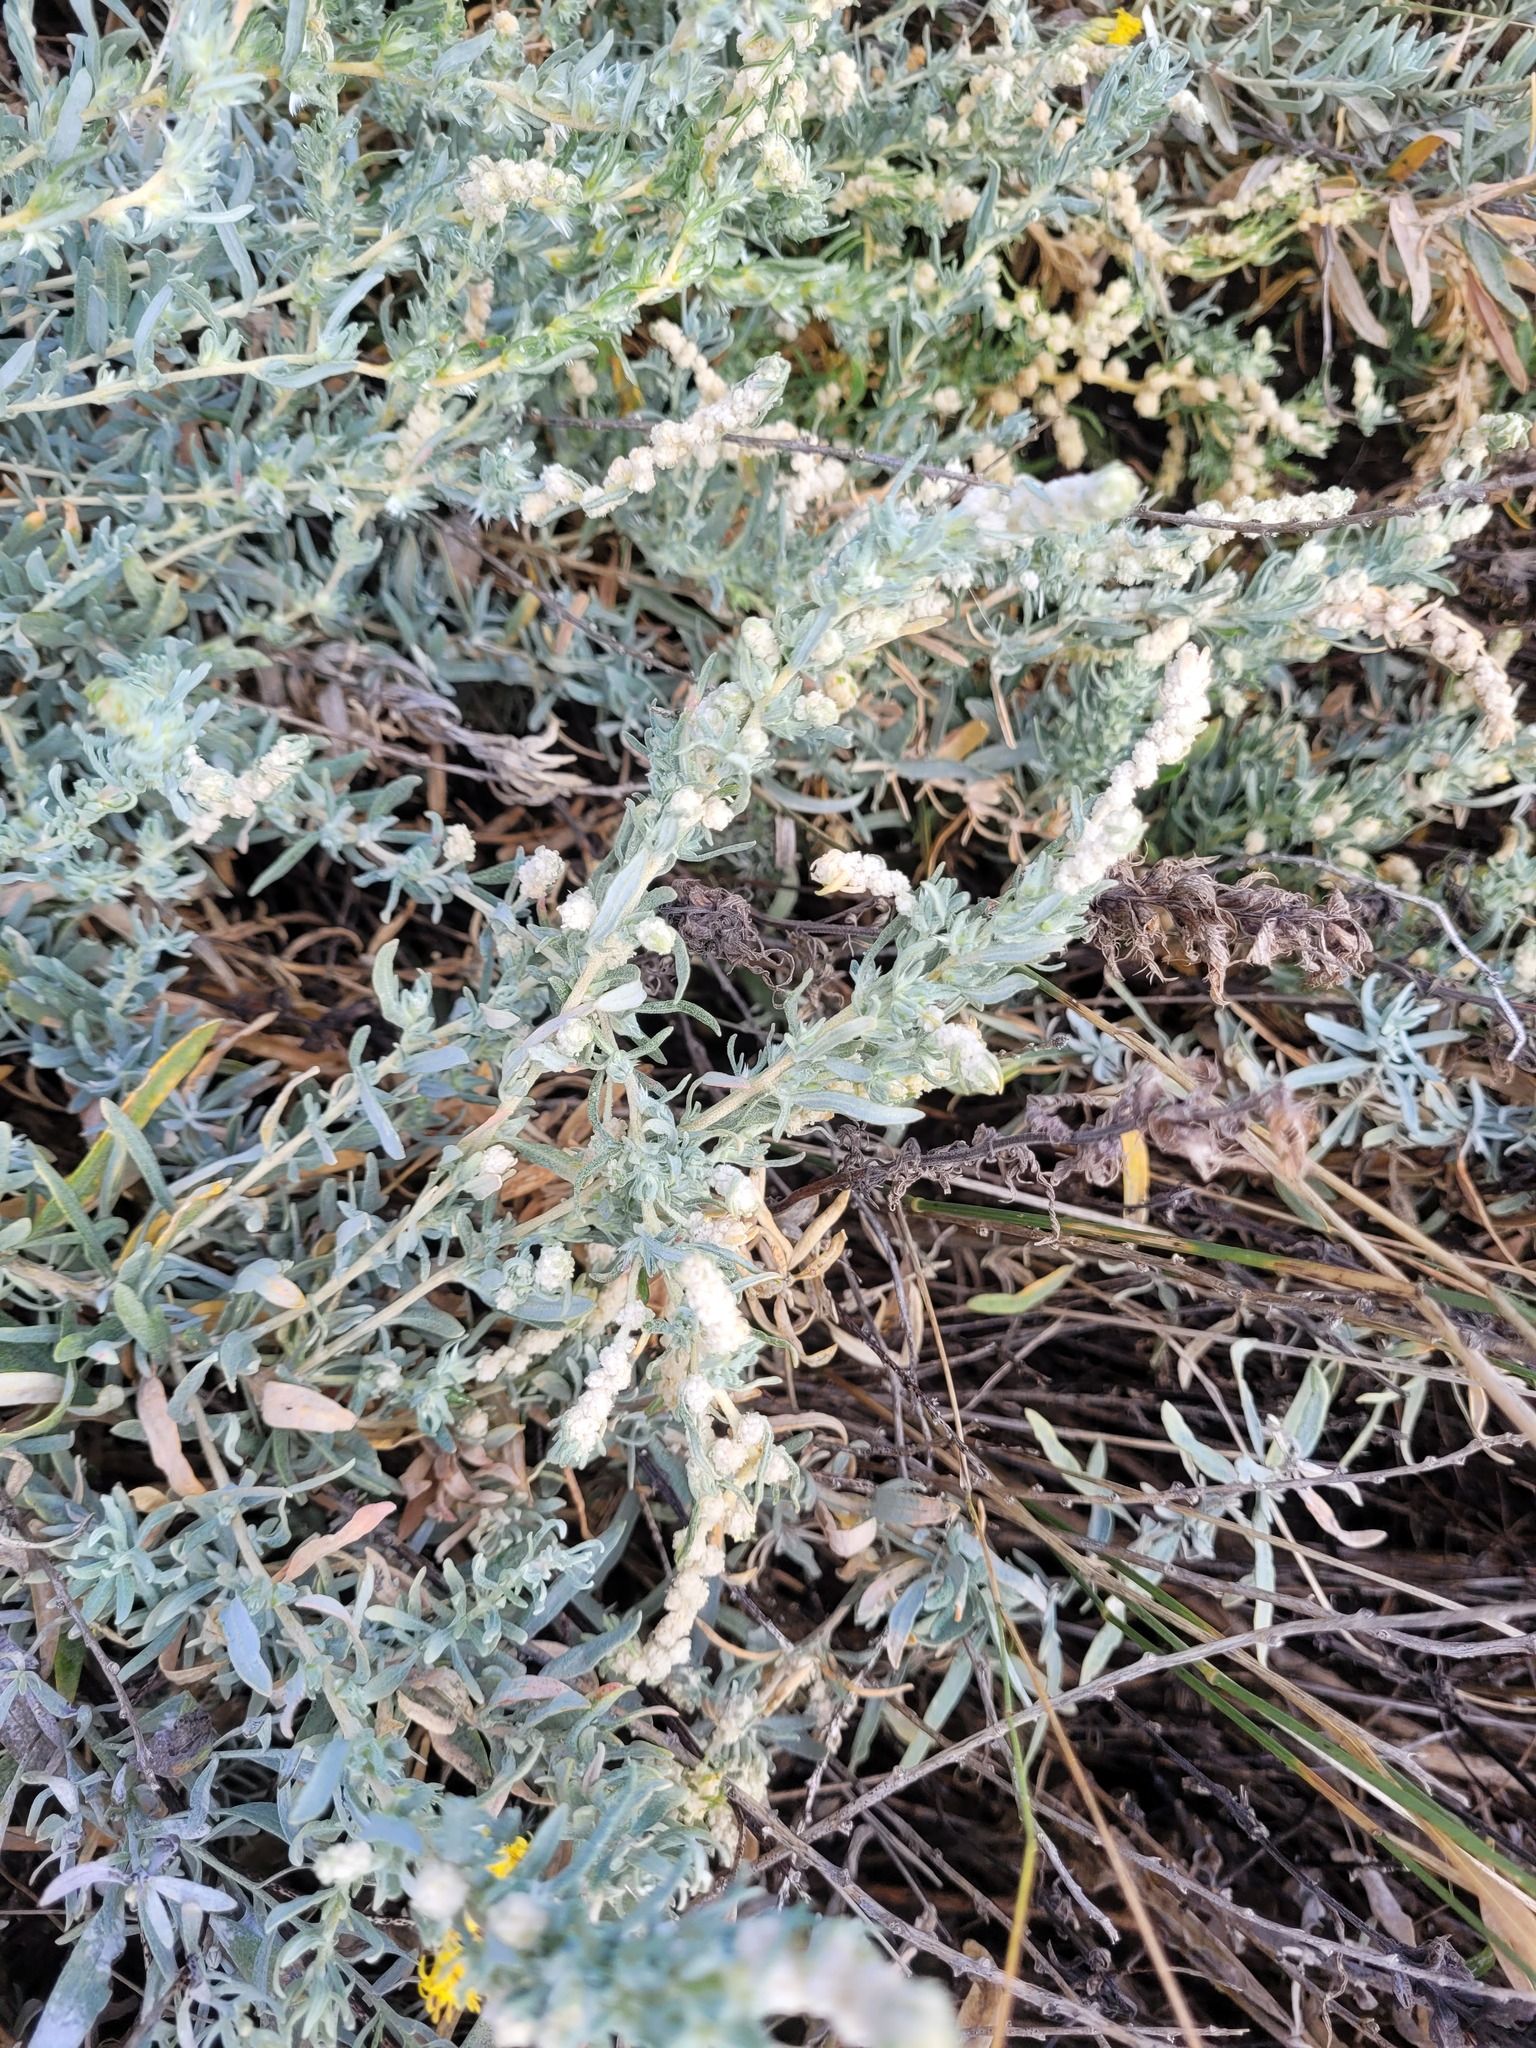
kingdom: Plantae
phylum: Tracheophyta
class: Magnoliopsida
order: Caryophyllales
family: Amaranthaceae
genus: Krascheninnikovia
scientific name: Krascheninnikovia ceratoides
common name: Pamirian winterfat
